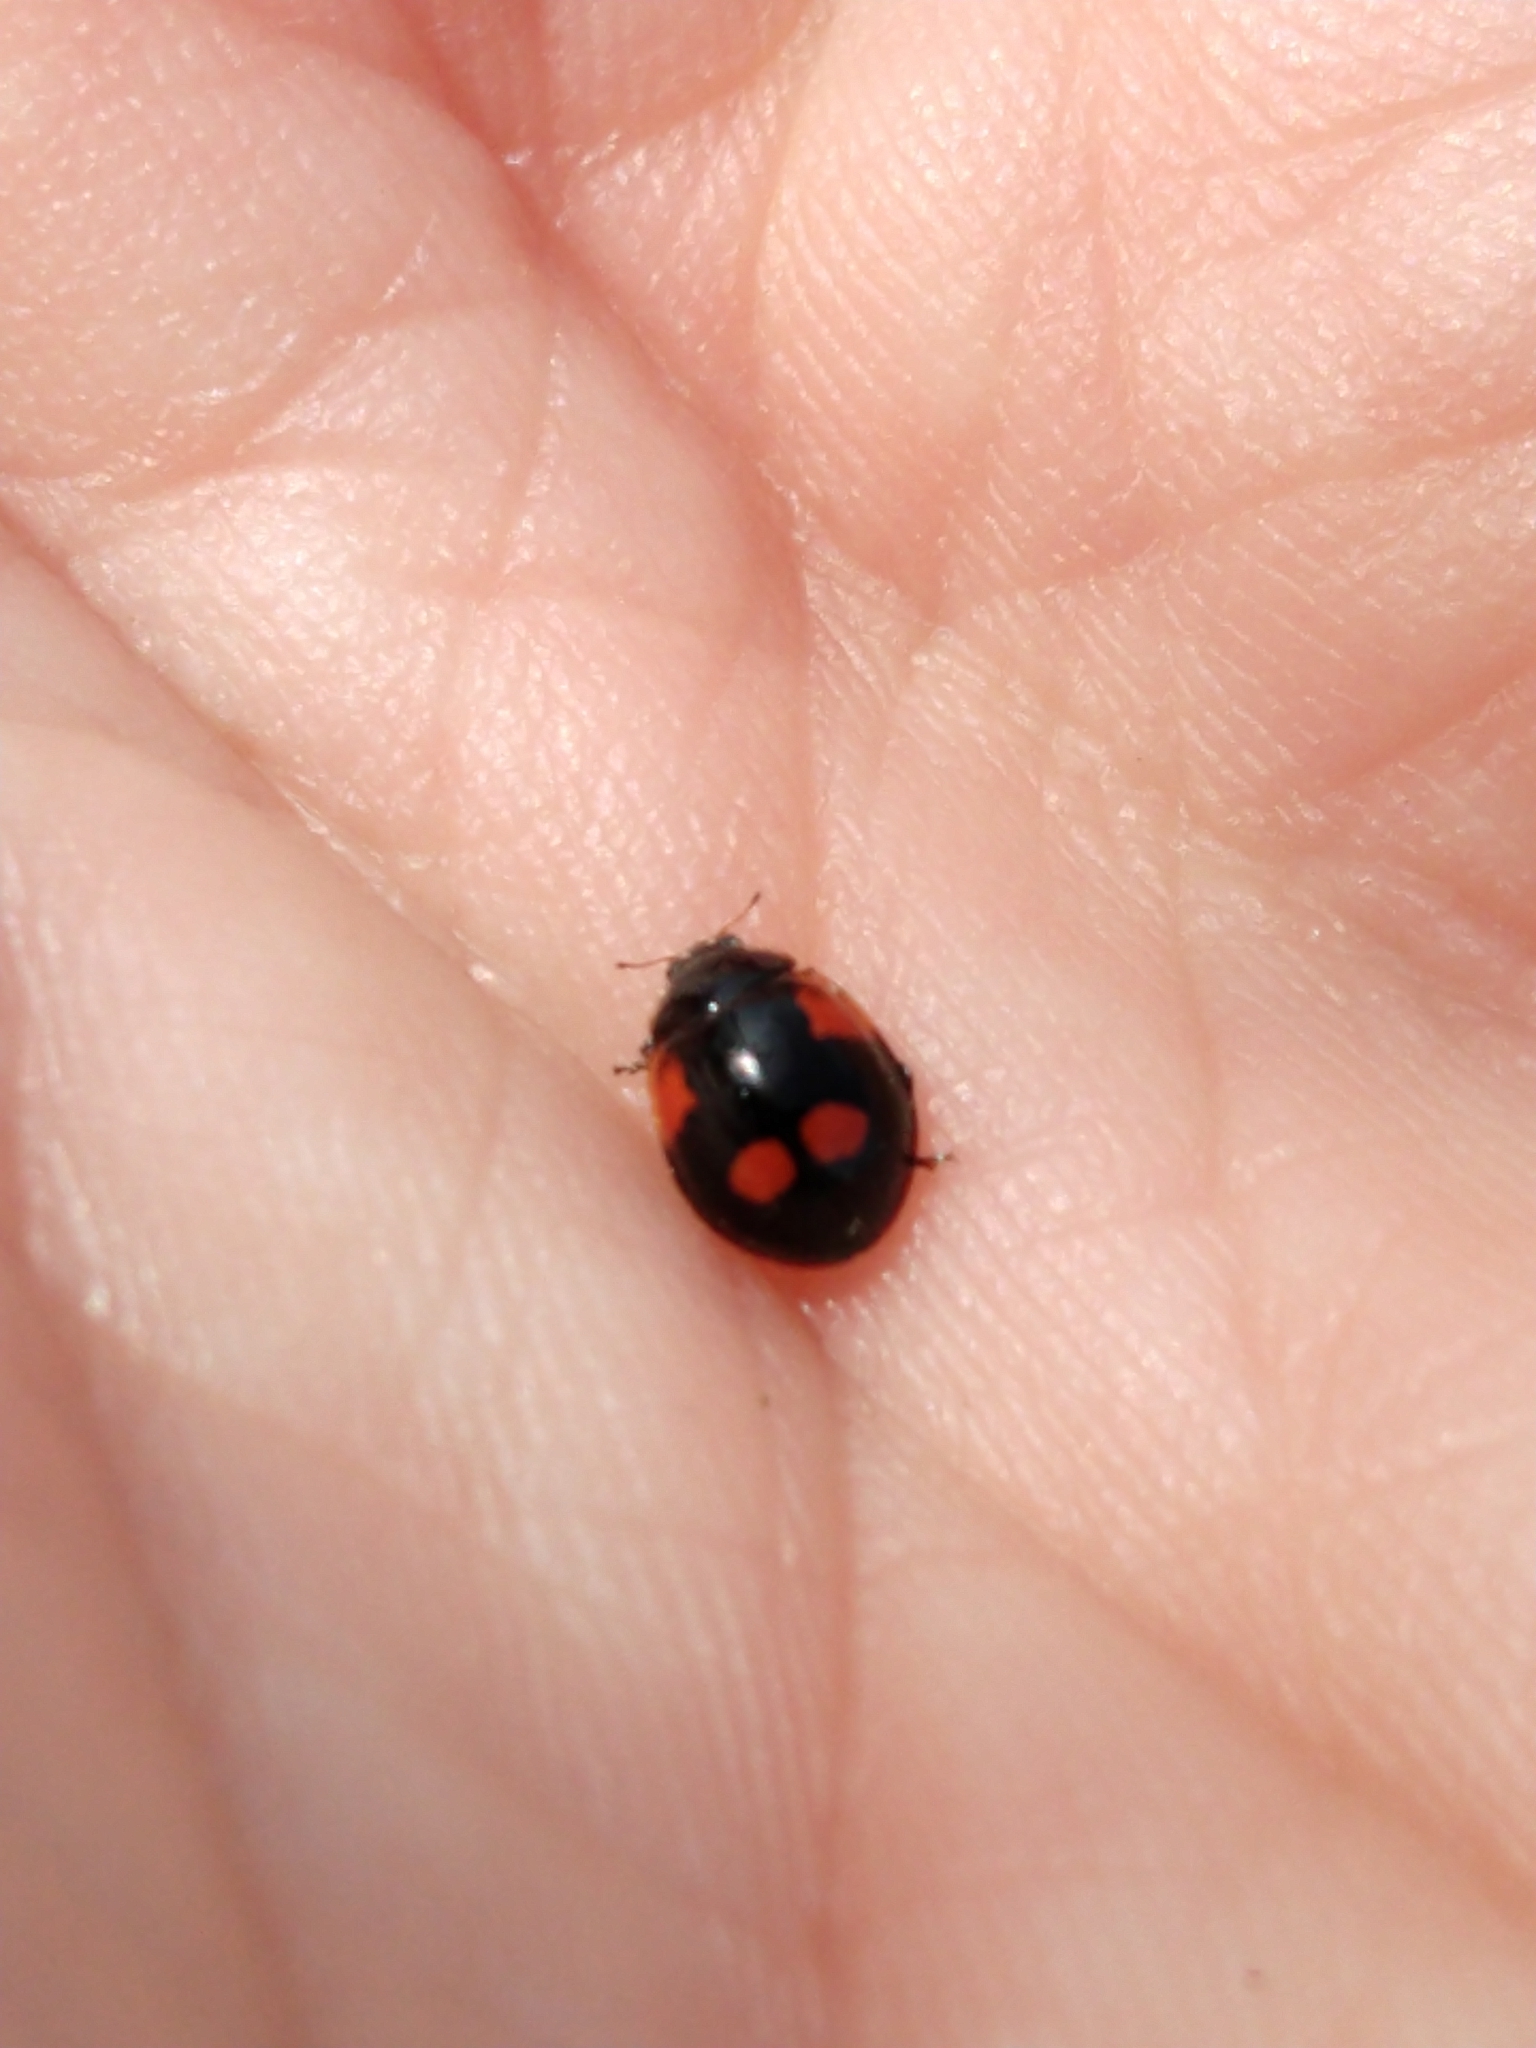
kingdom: Animalia
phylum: Arthropoda
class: Insecta
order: Coleoptera
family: Coccinellidae
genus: Adalia
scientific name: Adalia bipunctata
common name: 2-spot ladybird
